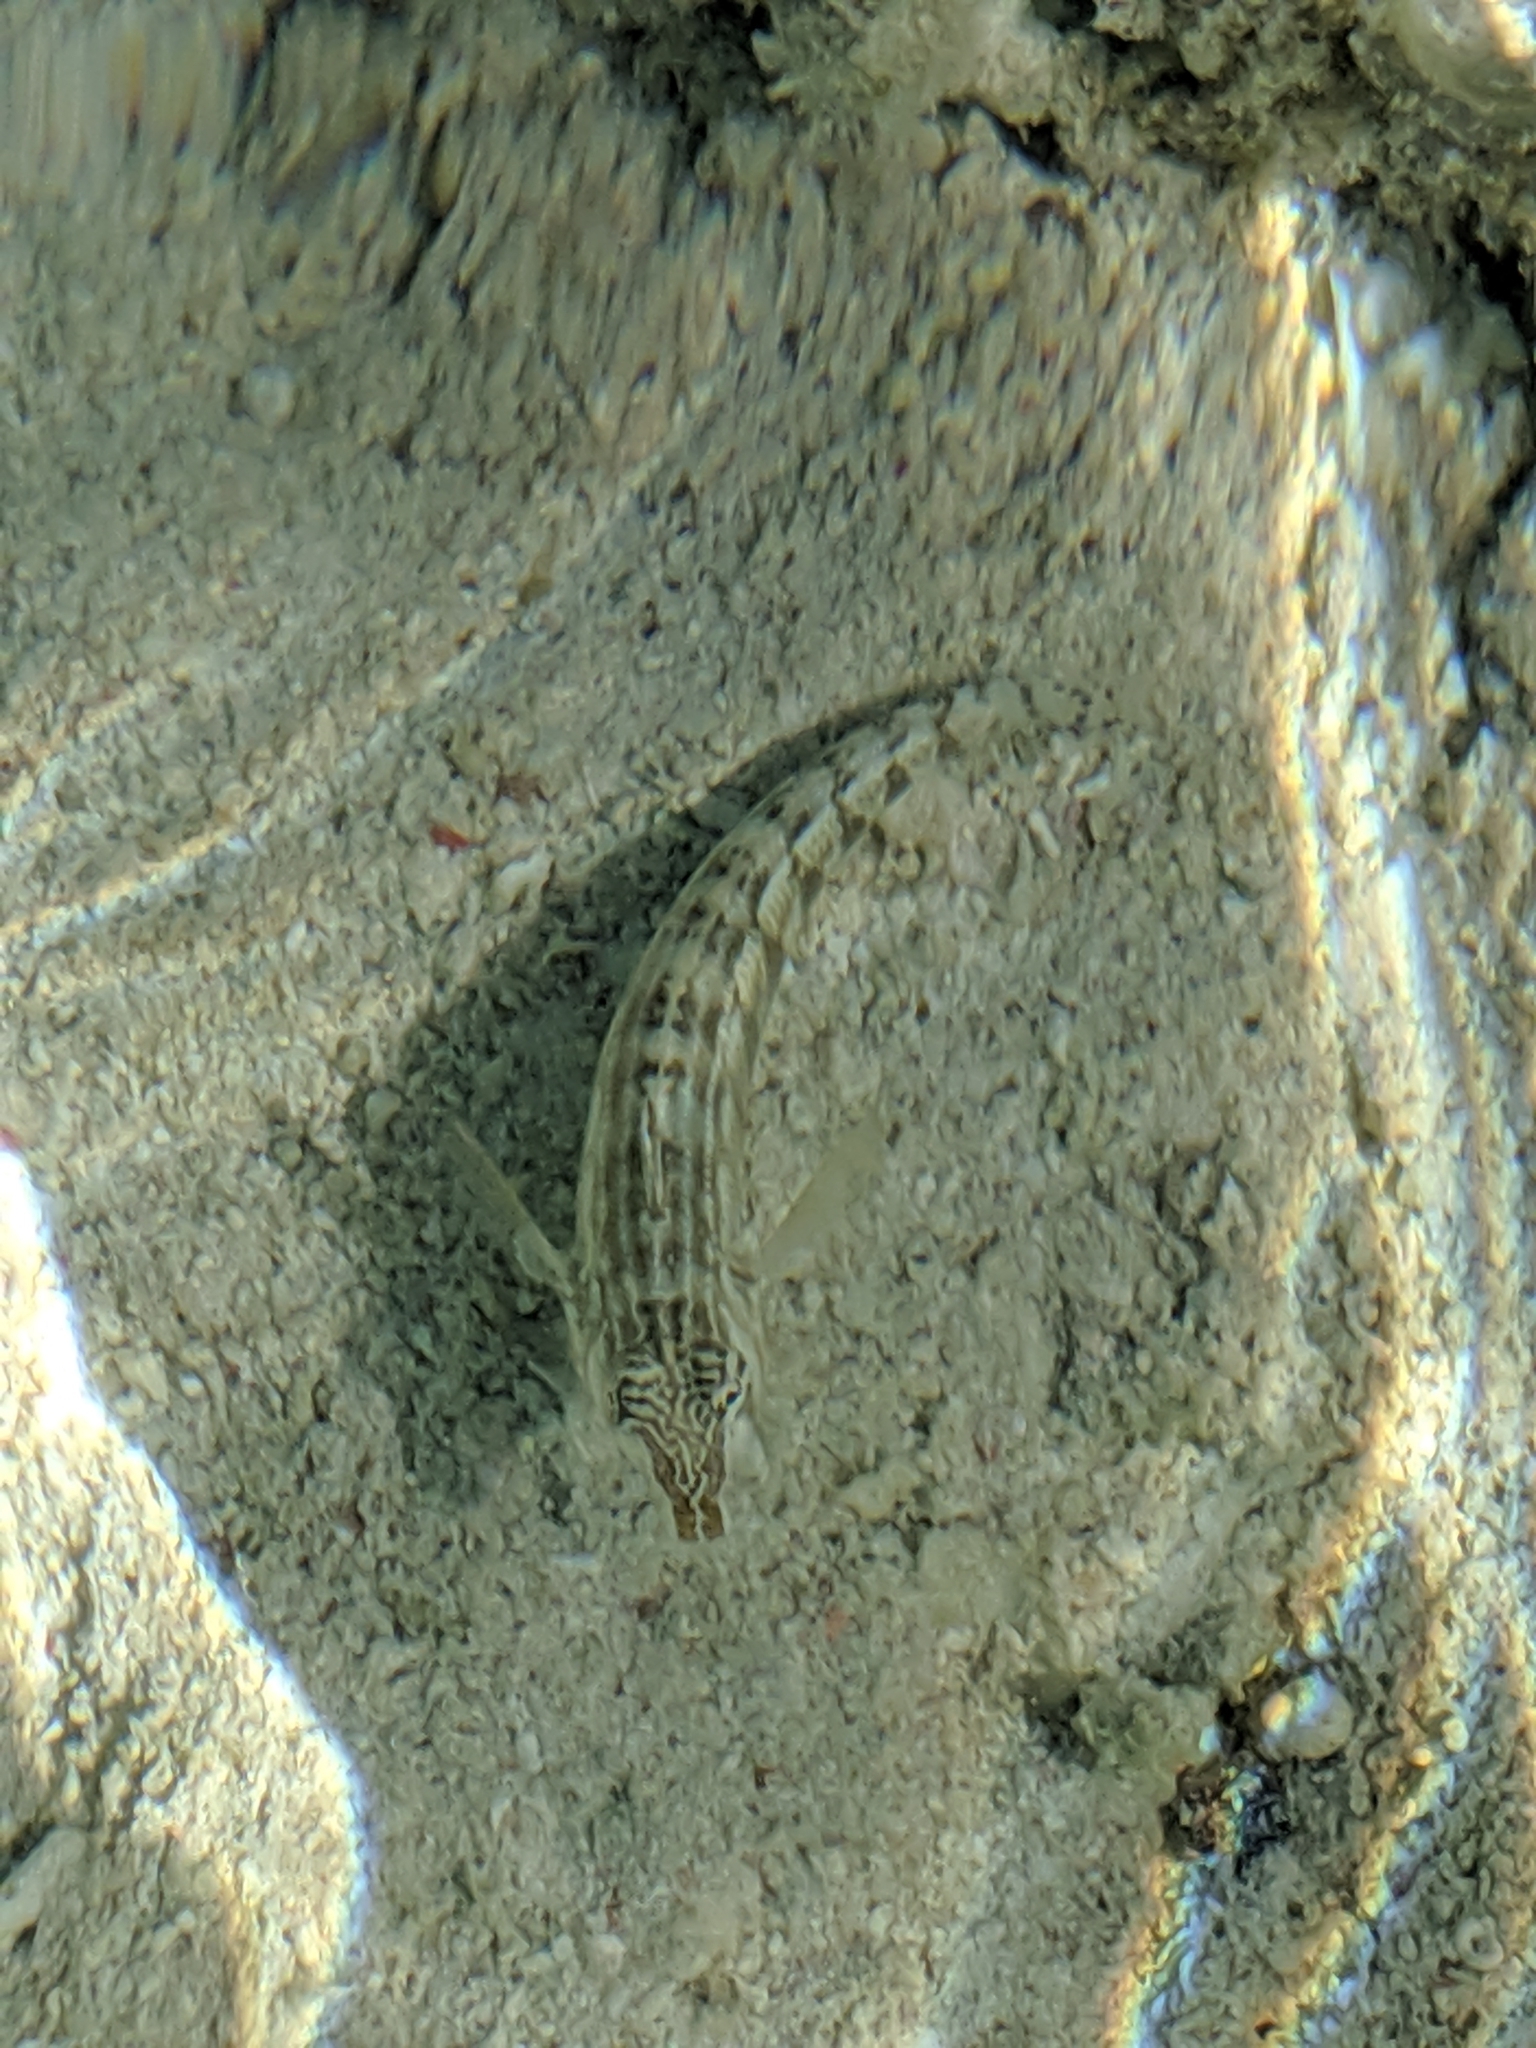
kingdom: Animalia
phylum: Chordata
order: Perciformes
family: Pinguipedidae
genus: Parapercis
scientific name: Parapercis australis
